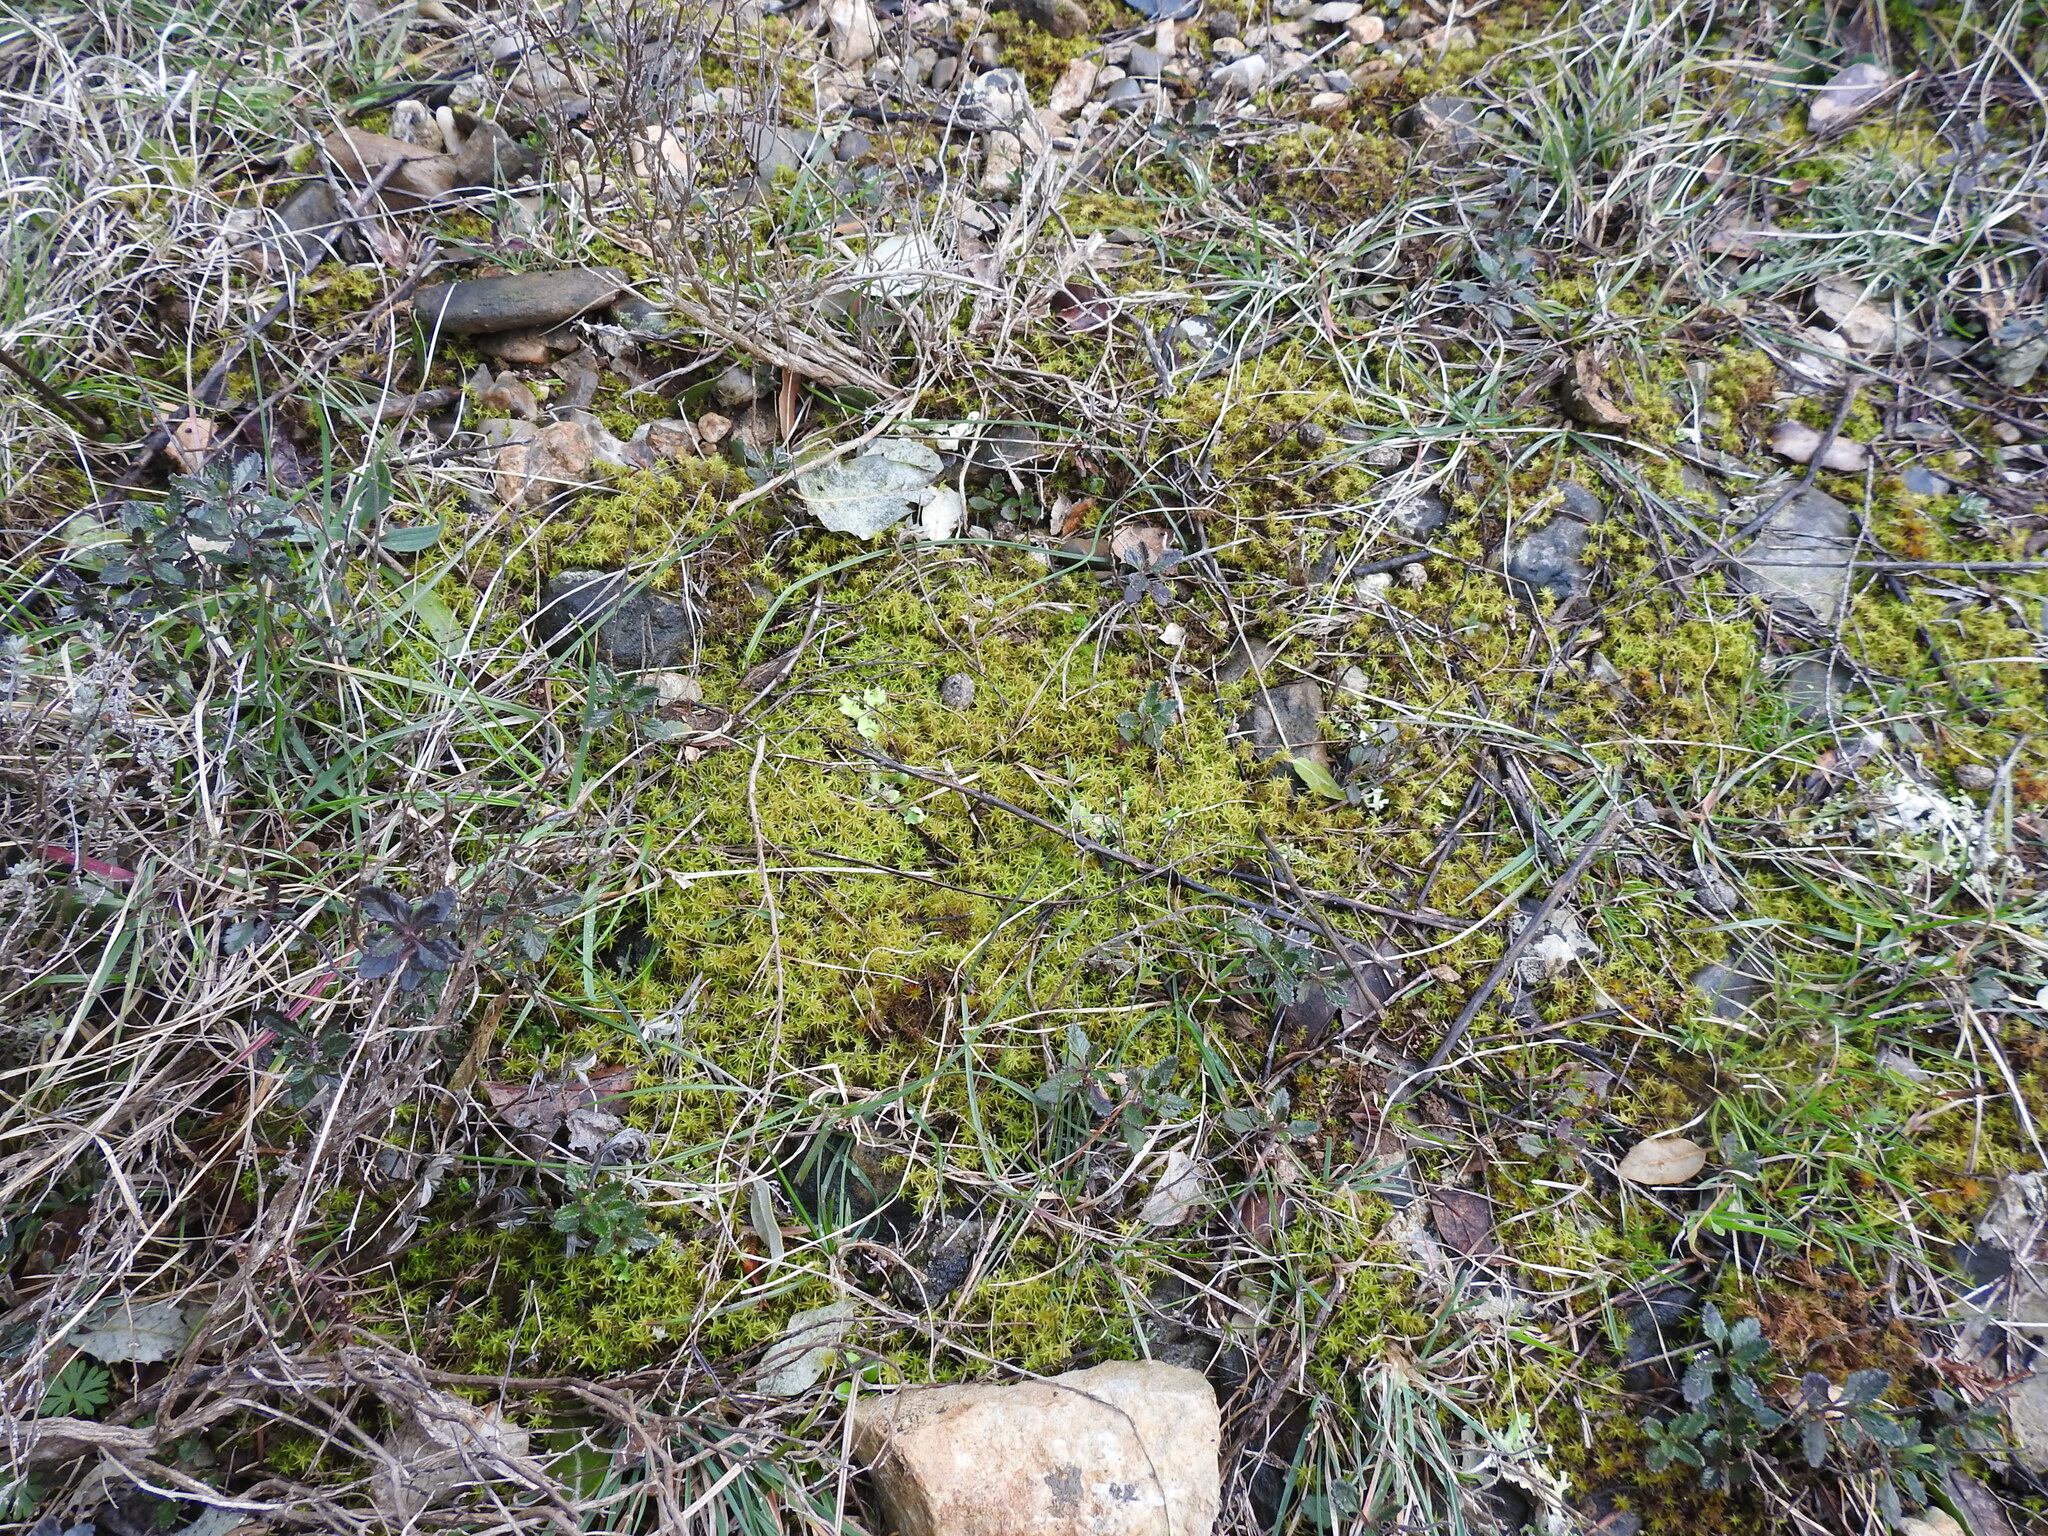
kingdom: Plantae
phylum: Bryophyta
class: Bryopsida
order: Pottiales
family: Pottiaceae
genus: Pleurochaete
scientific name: Pleurochaete squarrosa
